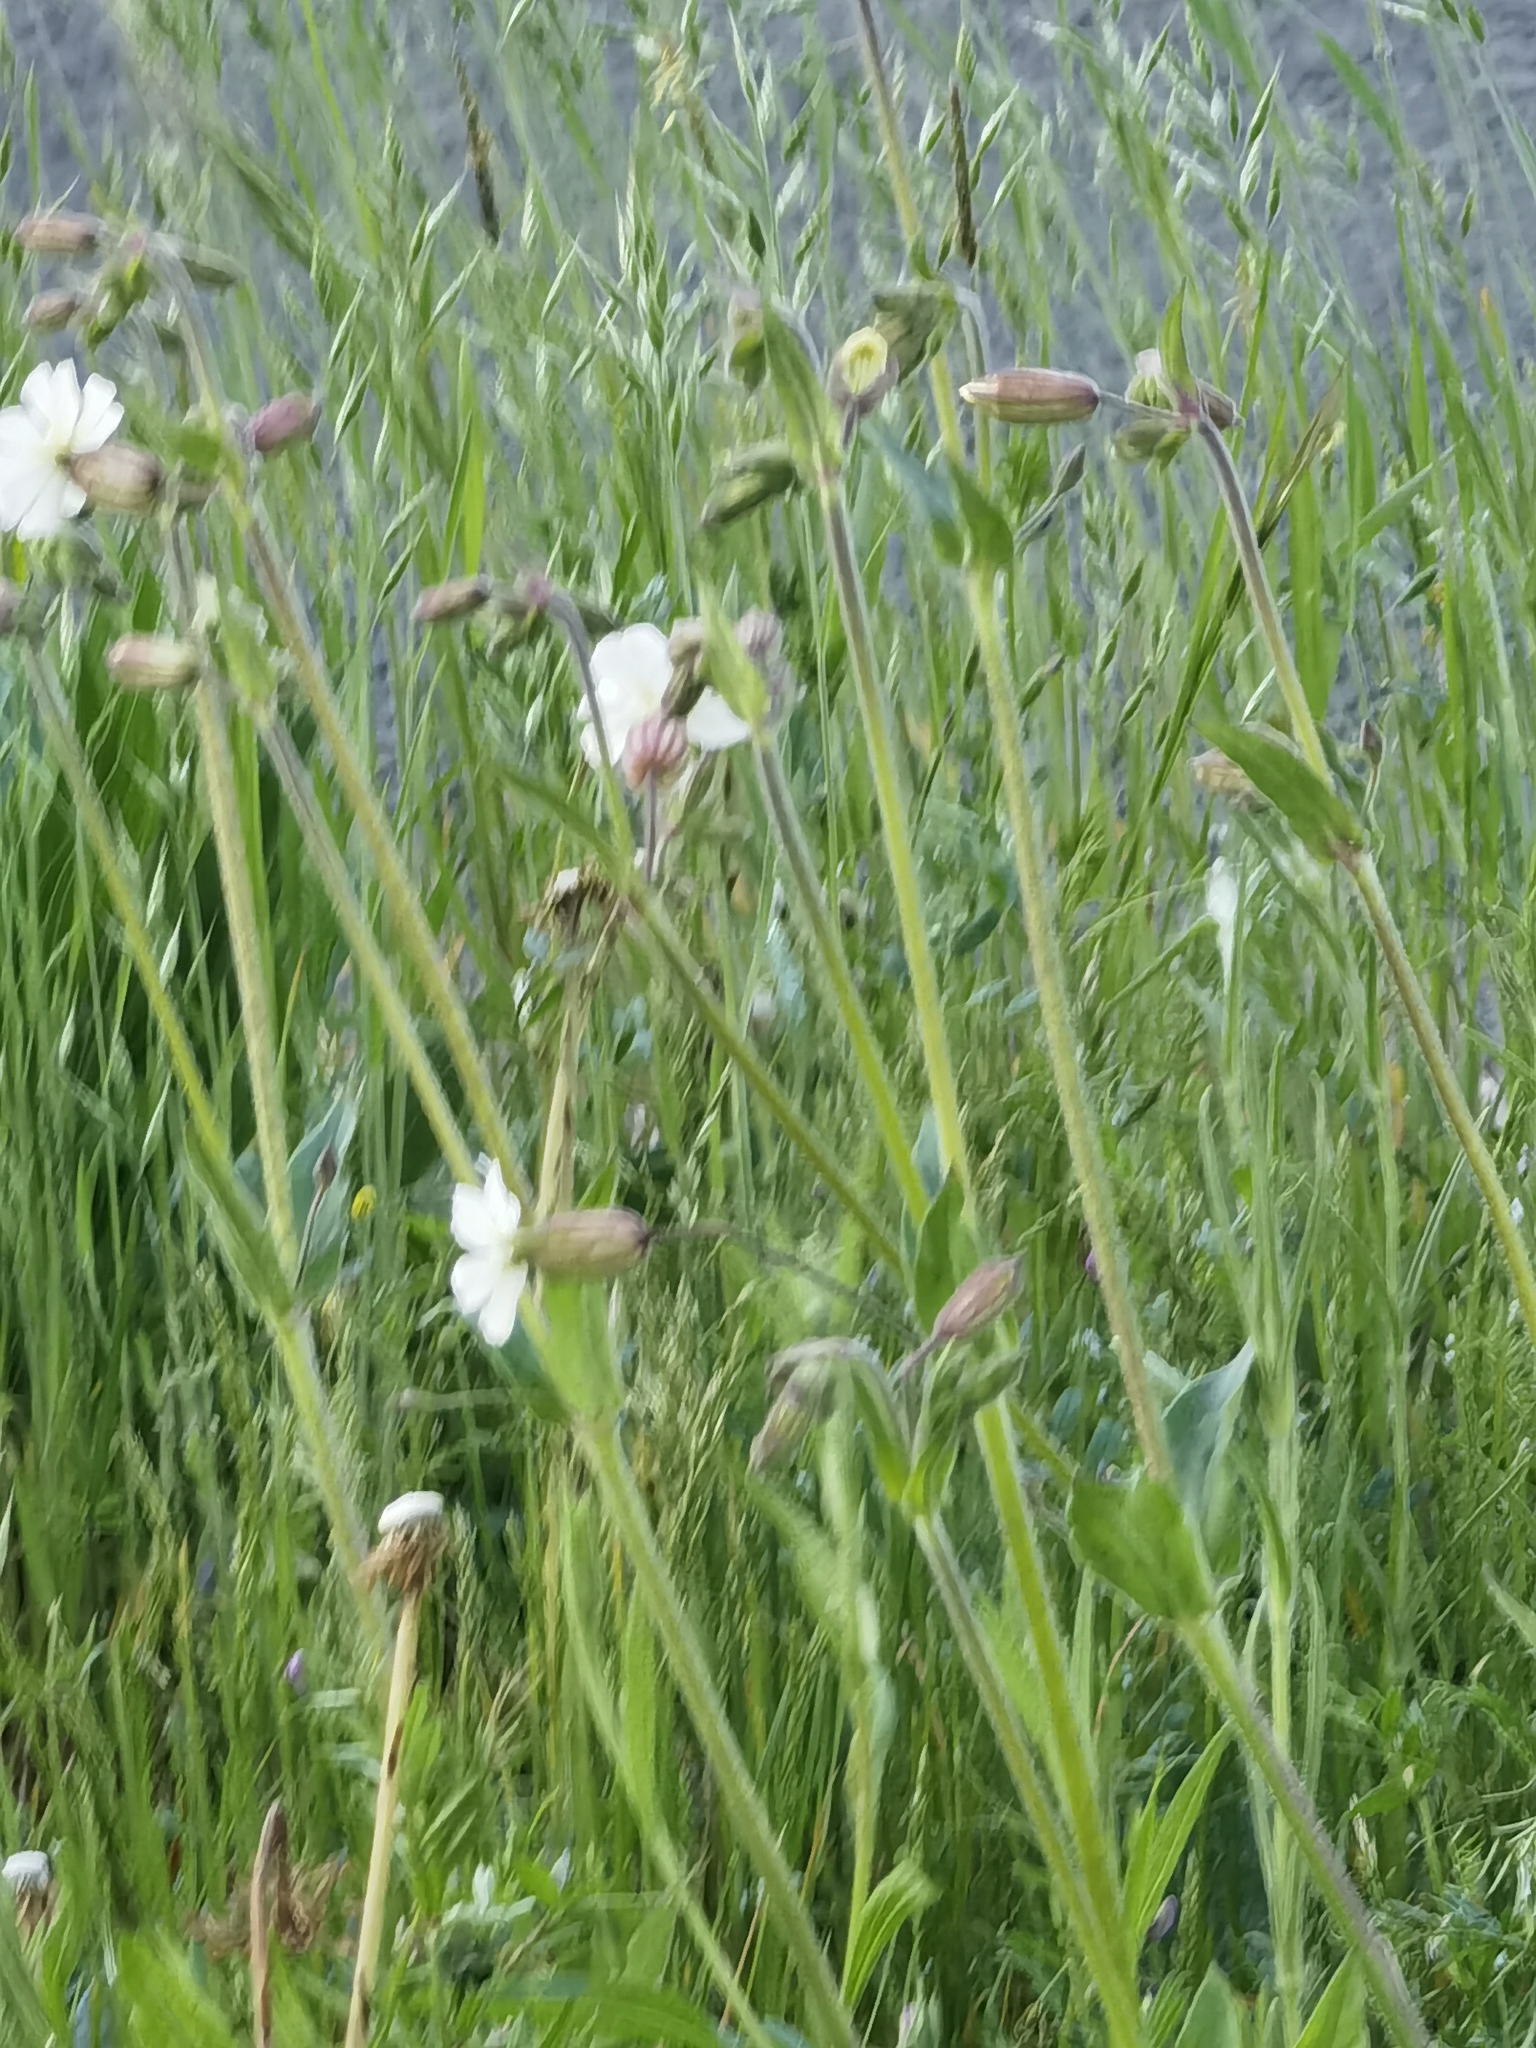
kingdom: Plantae
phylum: Tracheophyta
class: Magnoliopsida
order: Caryophyllales
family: Caryophyllaceae
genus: Silene
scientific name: Silene latifolia
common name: White campion
